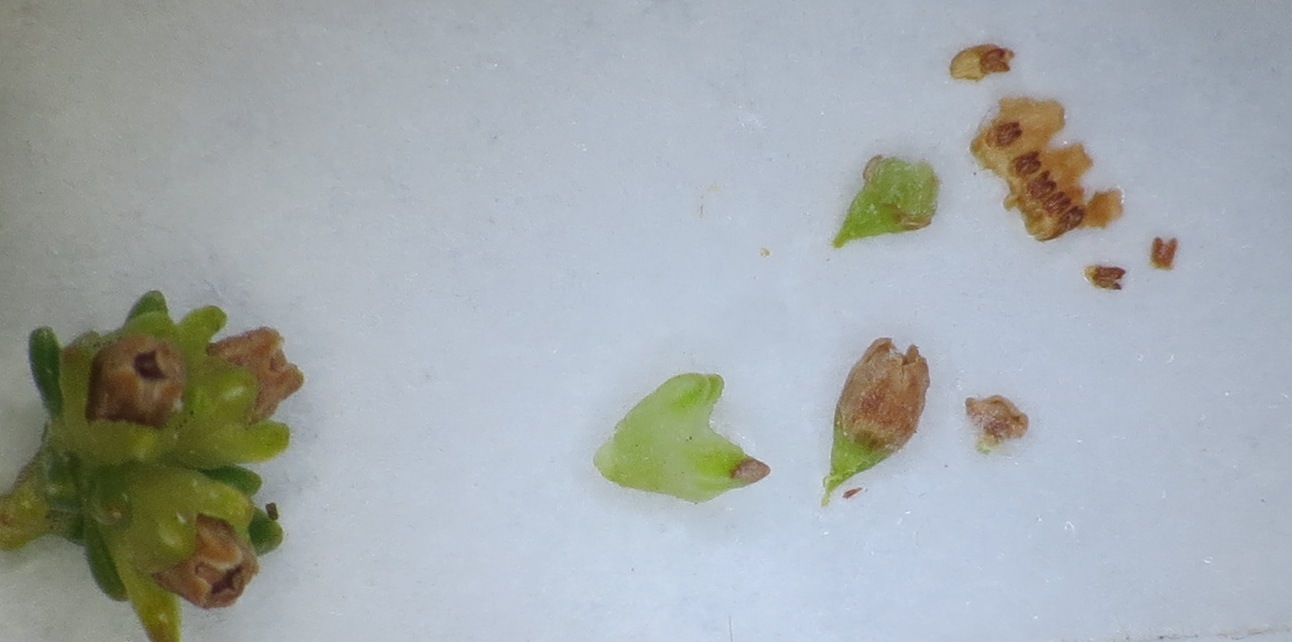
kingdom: Plantae
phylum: Tracheophyta
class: Magnoliopsida
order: Ericales
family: Ericaceae
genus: Erica
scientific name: Erica tristis
